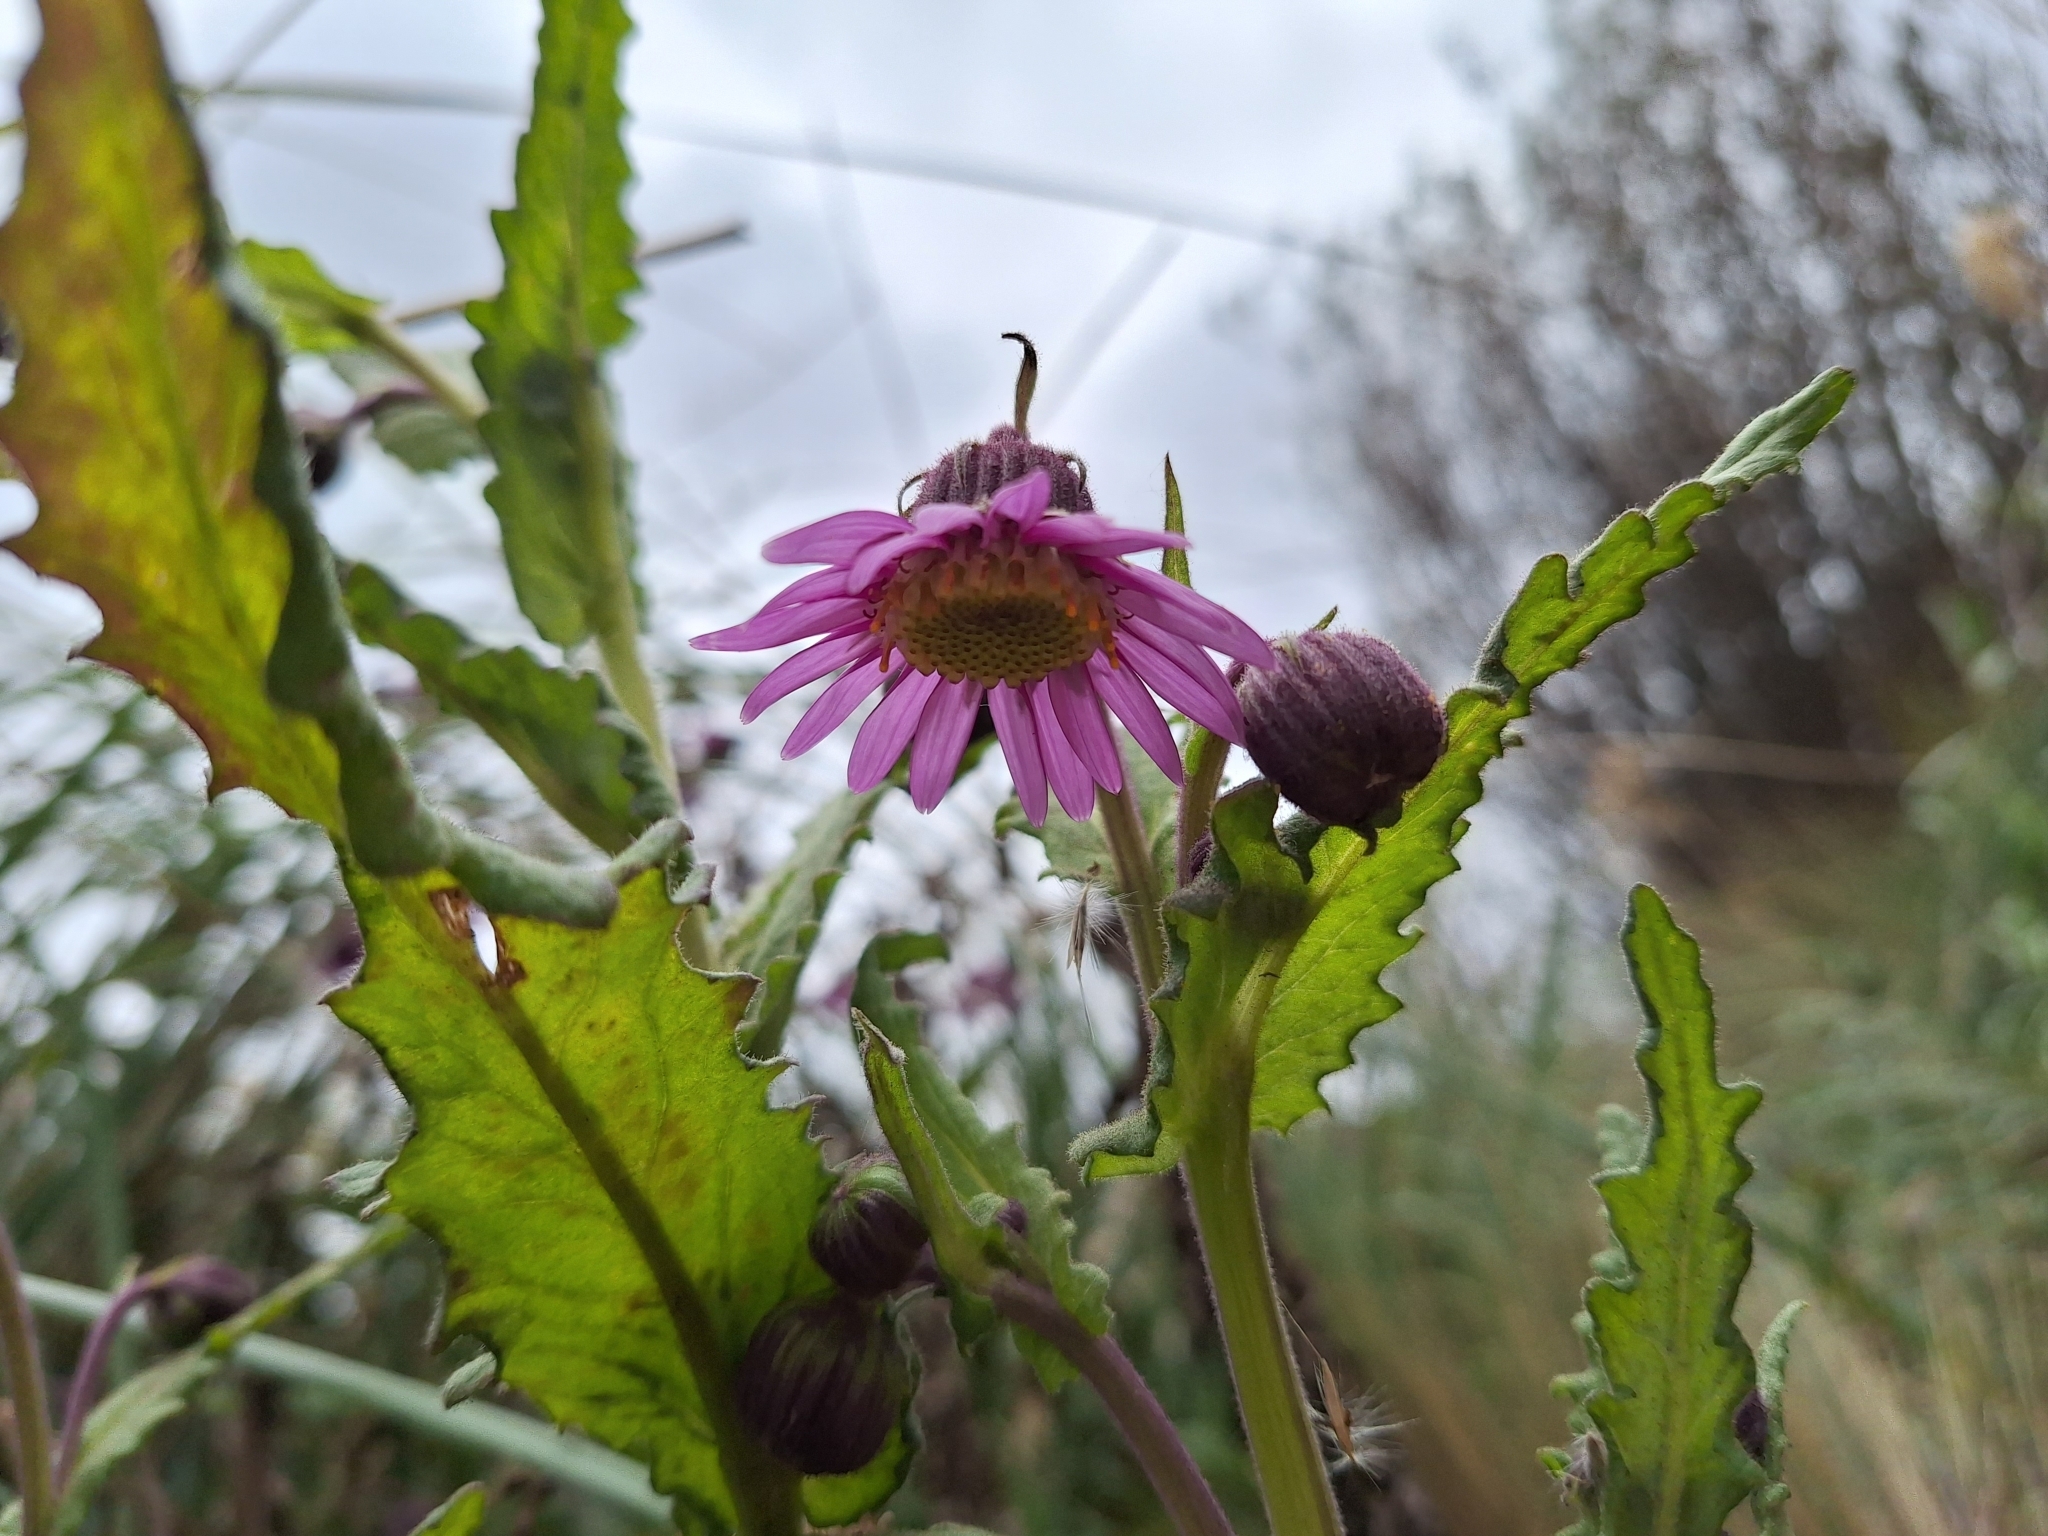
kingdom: Plantae
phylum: Tracheophyta
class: Magnoliopsida
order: Asterales
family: Asteraceae
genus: Senecio
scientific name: Senecio formosus
